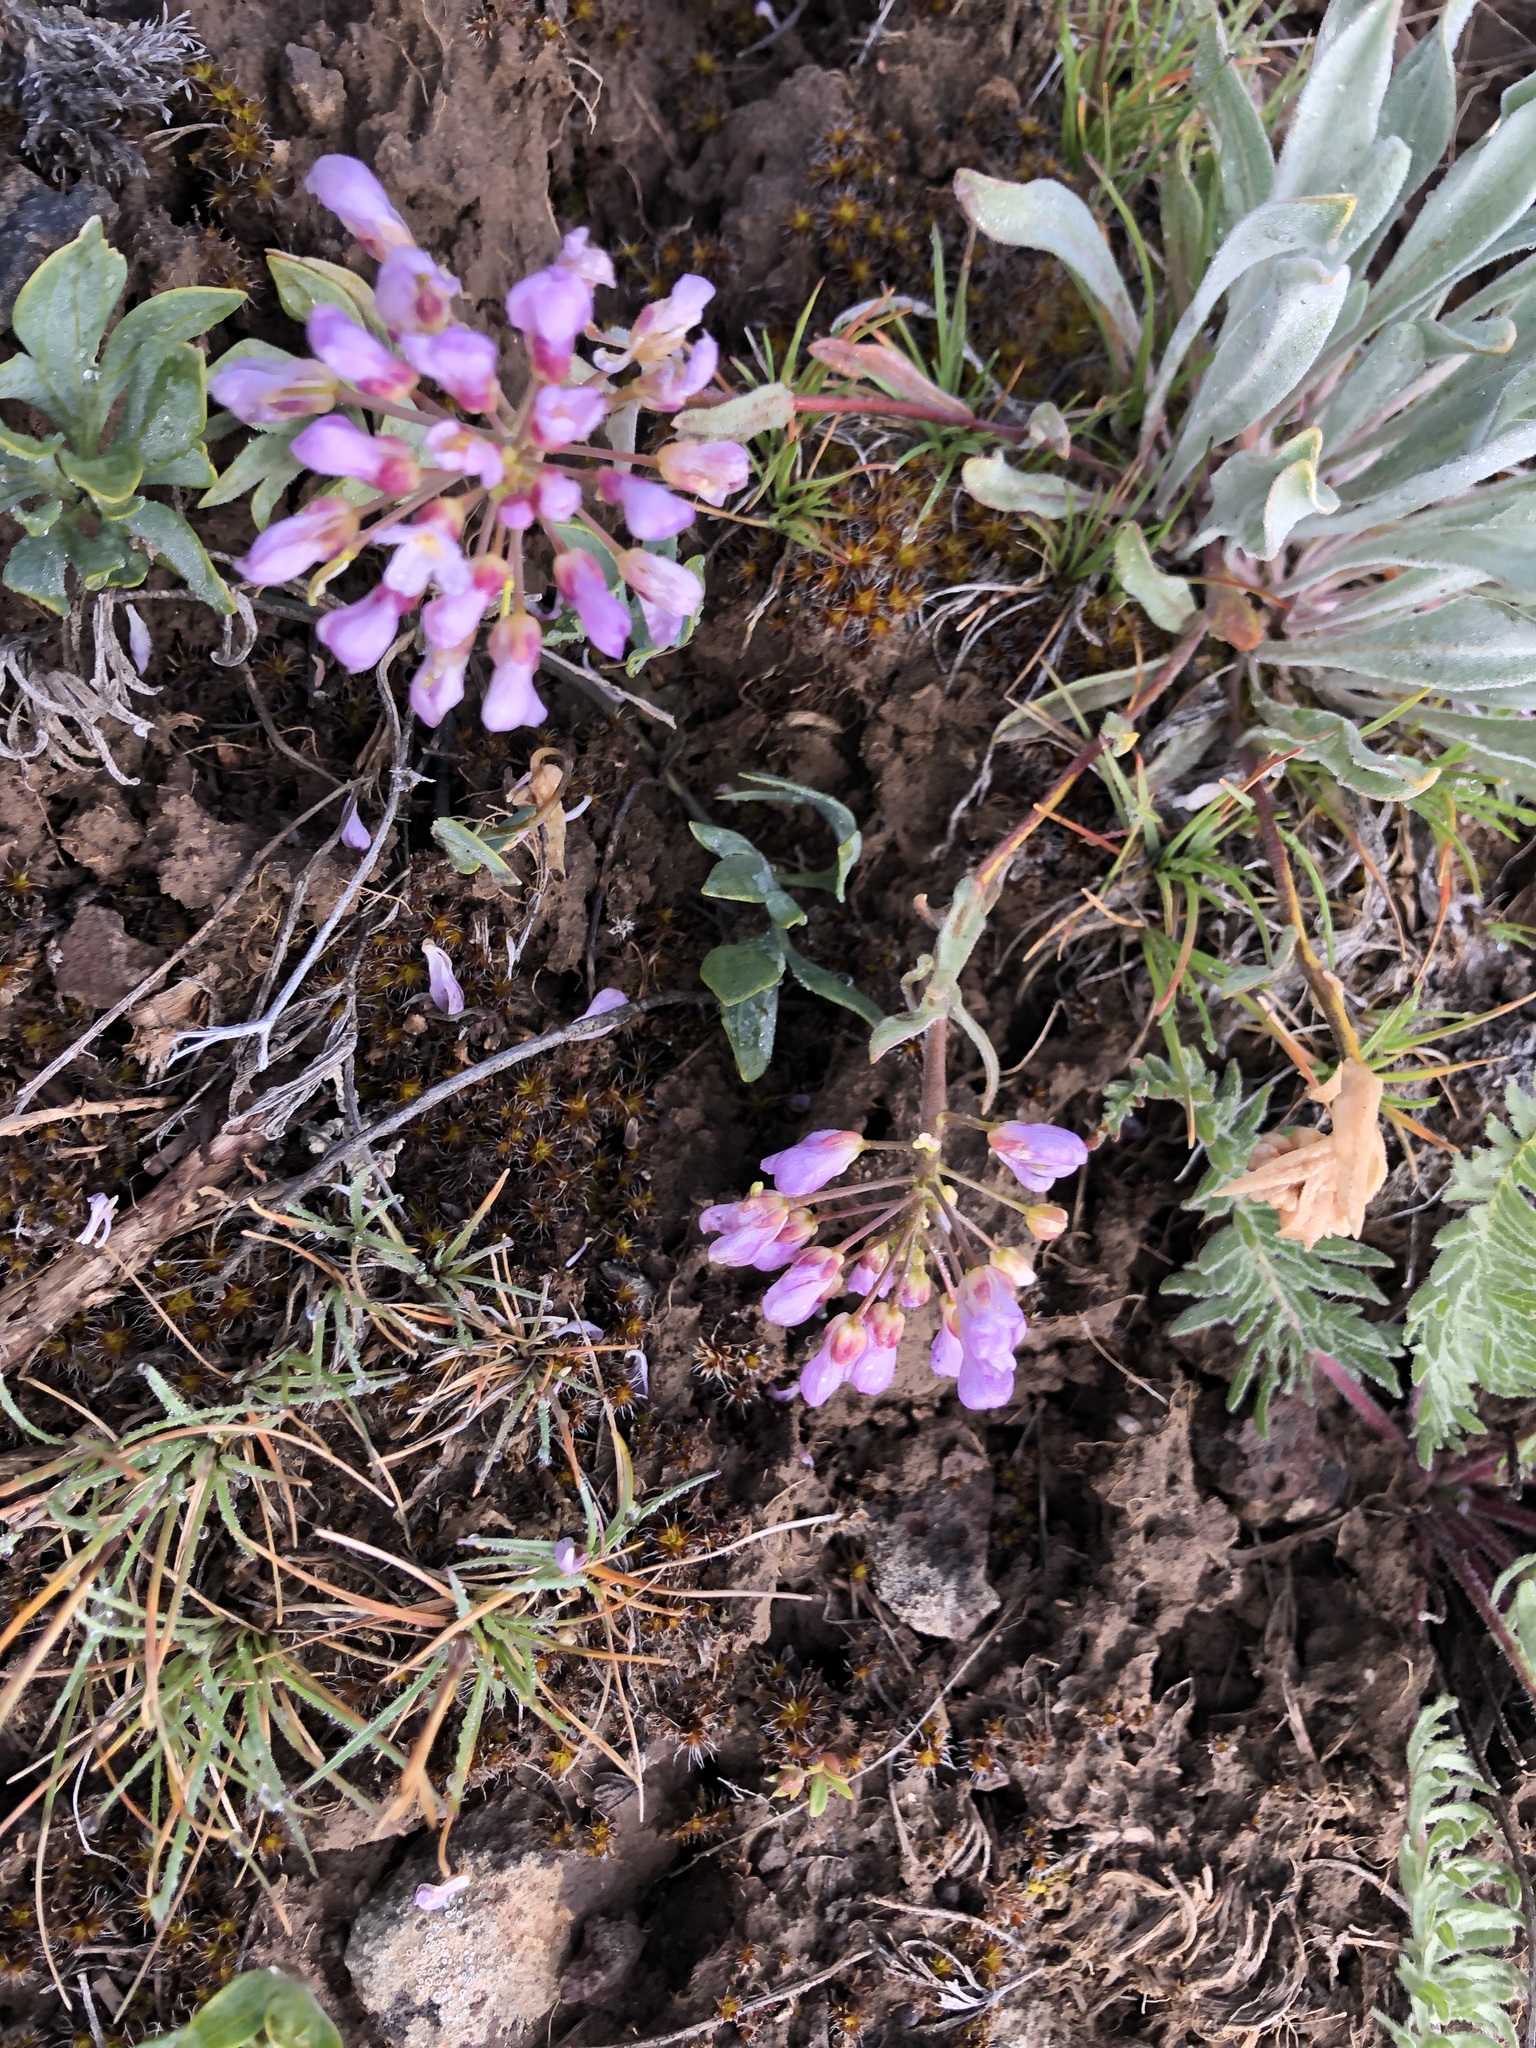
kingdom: Plantae
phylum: Tracheophyta
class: Magnoliopsida
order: Brassicales
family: Brassicaceae
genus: Phoenicaulis
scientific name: Phoenicaulis cheiranthoides
